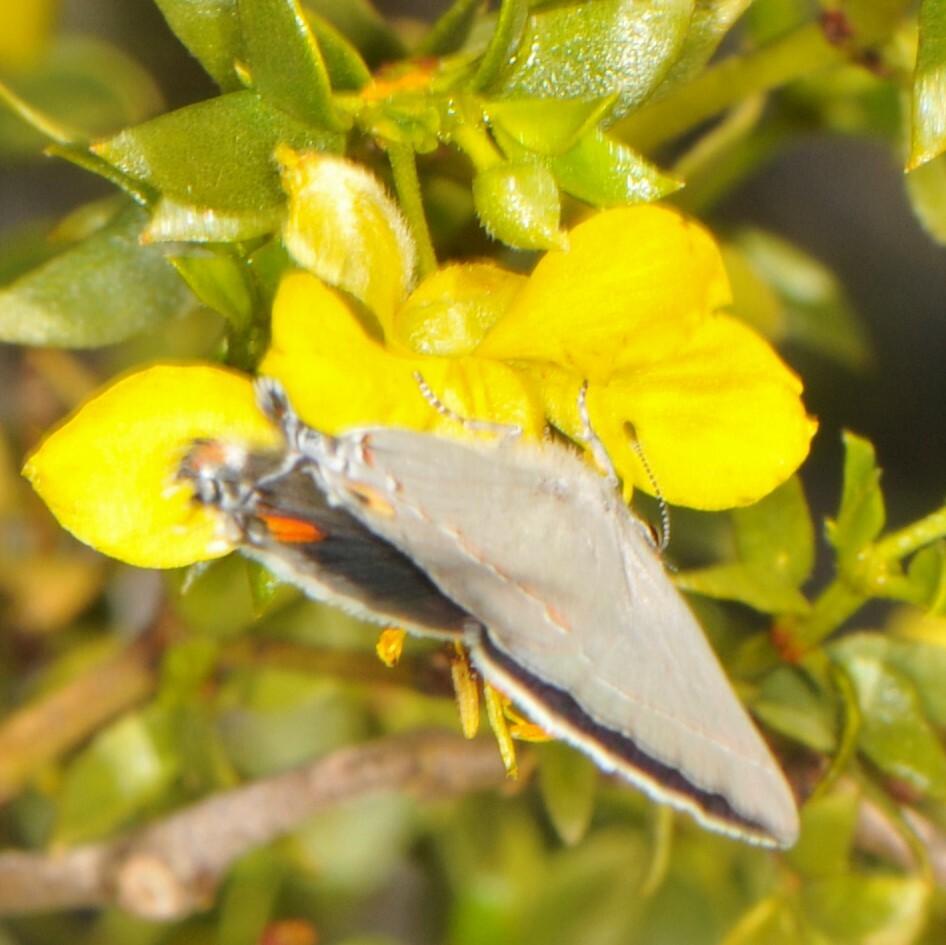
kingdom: Animalia
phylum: Arthropoda
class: Insecta
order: Lepidoptera
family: Lycaenidae
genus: Strymon
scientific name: Strymon melinus
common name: Gray hairstreak
